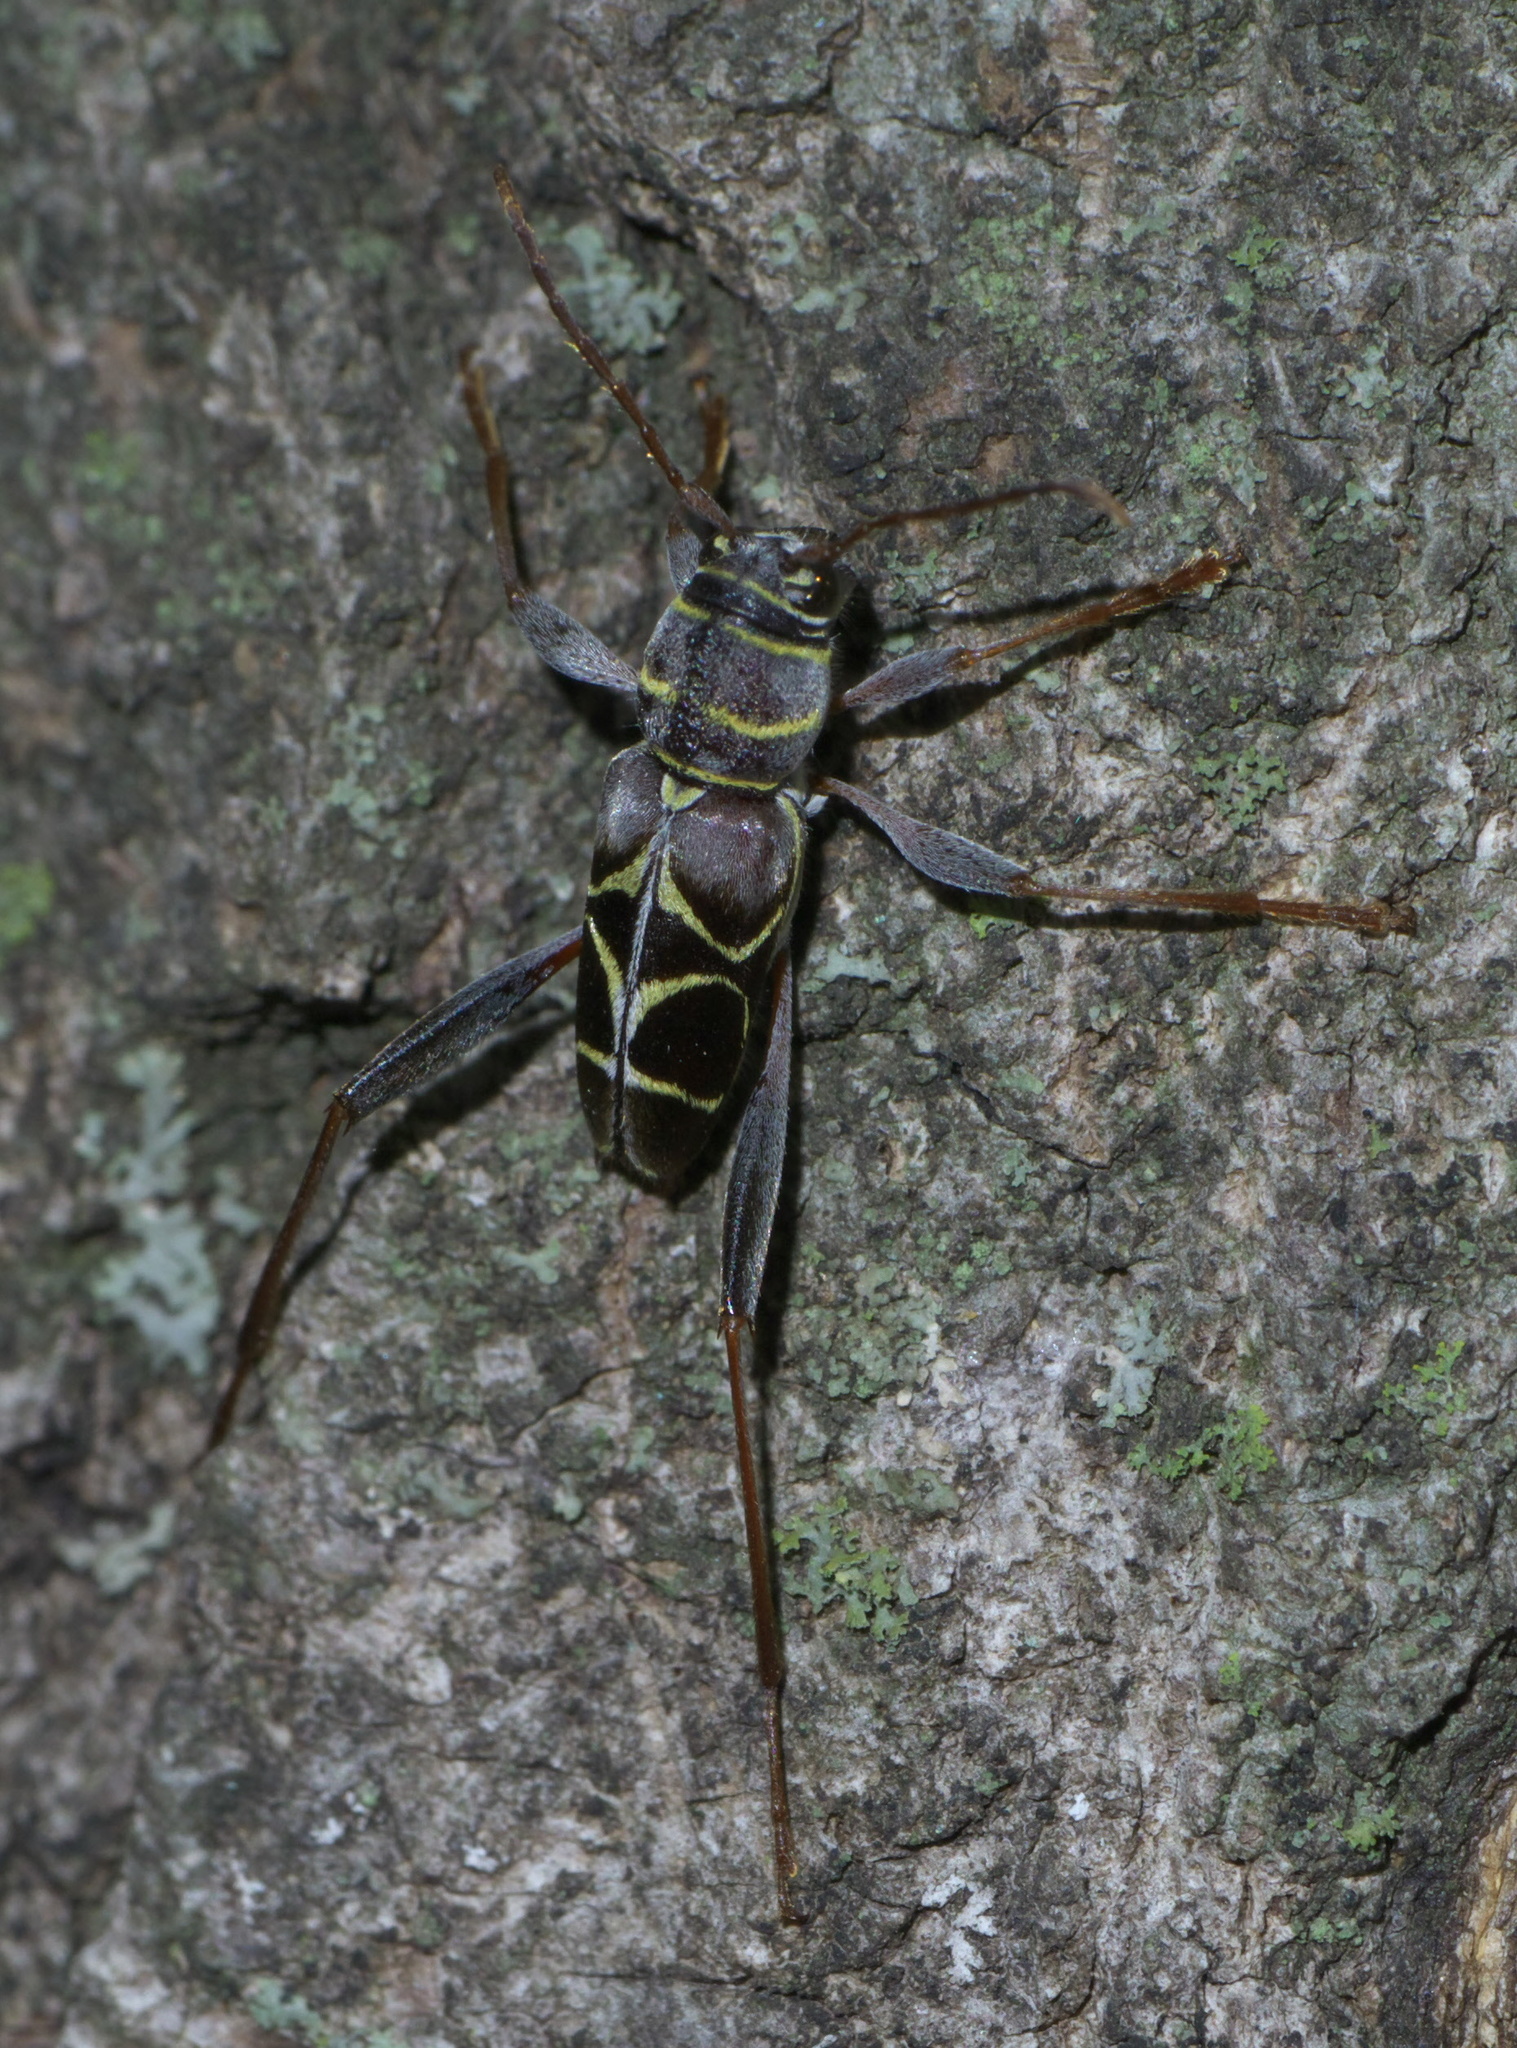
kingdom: Animalia
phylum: Arthropoda
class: Insecta
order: Coleoptera
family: Cerambycidae
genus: Neoclytus
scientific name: Neoclytus scutellaris
